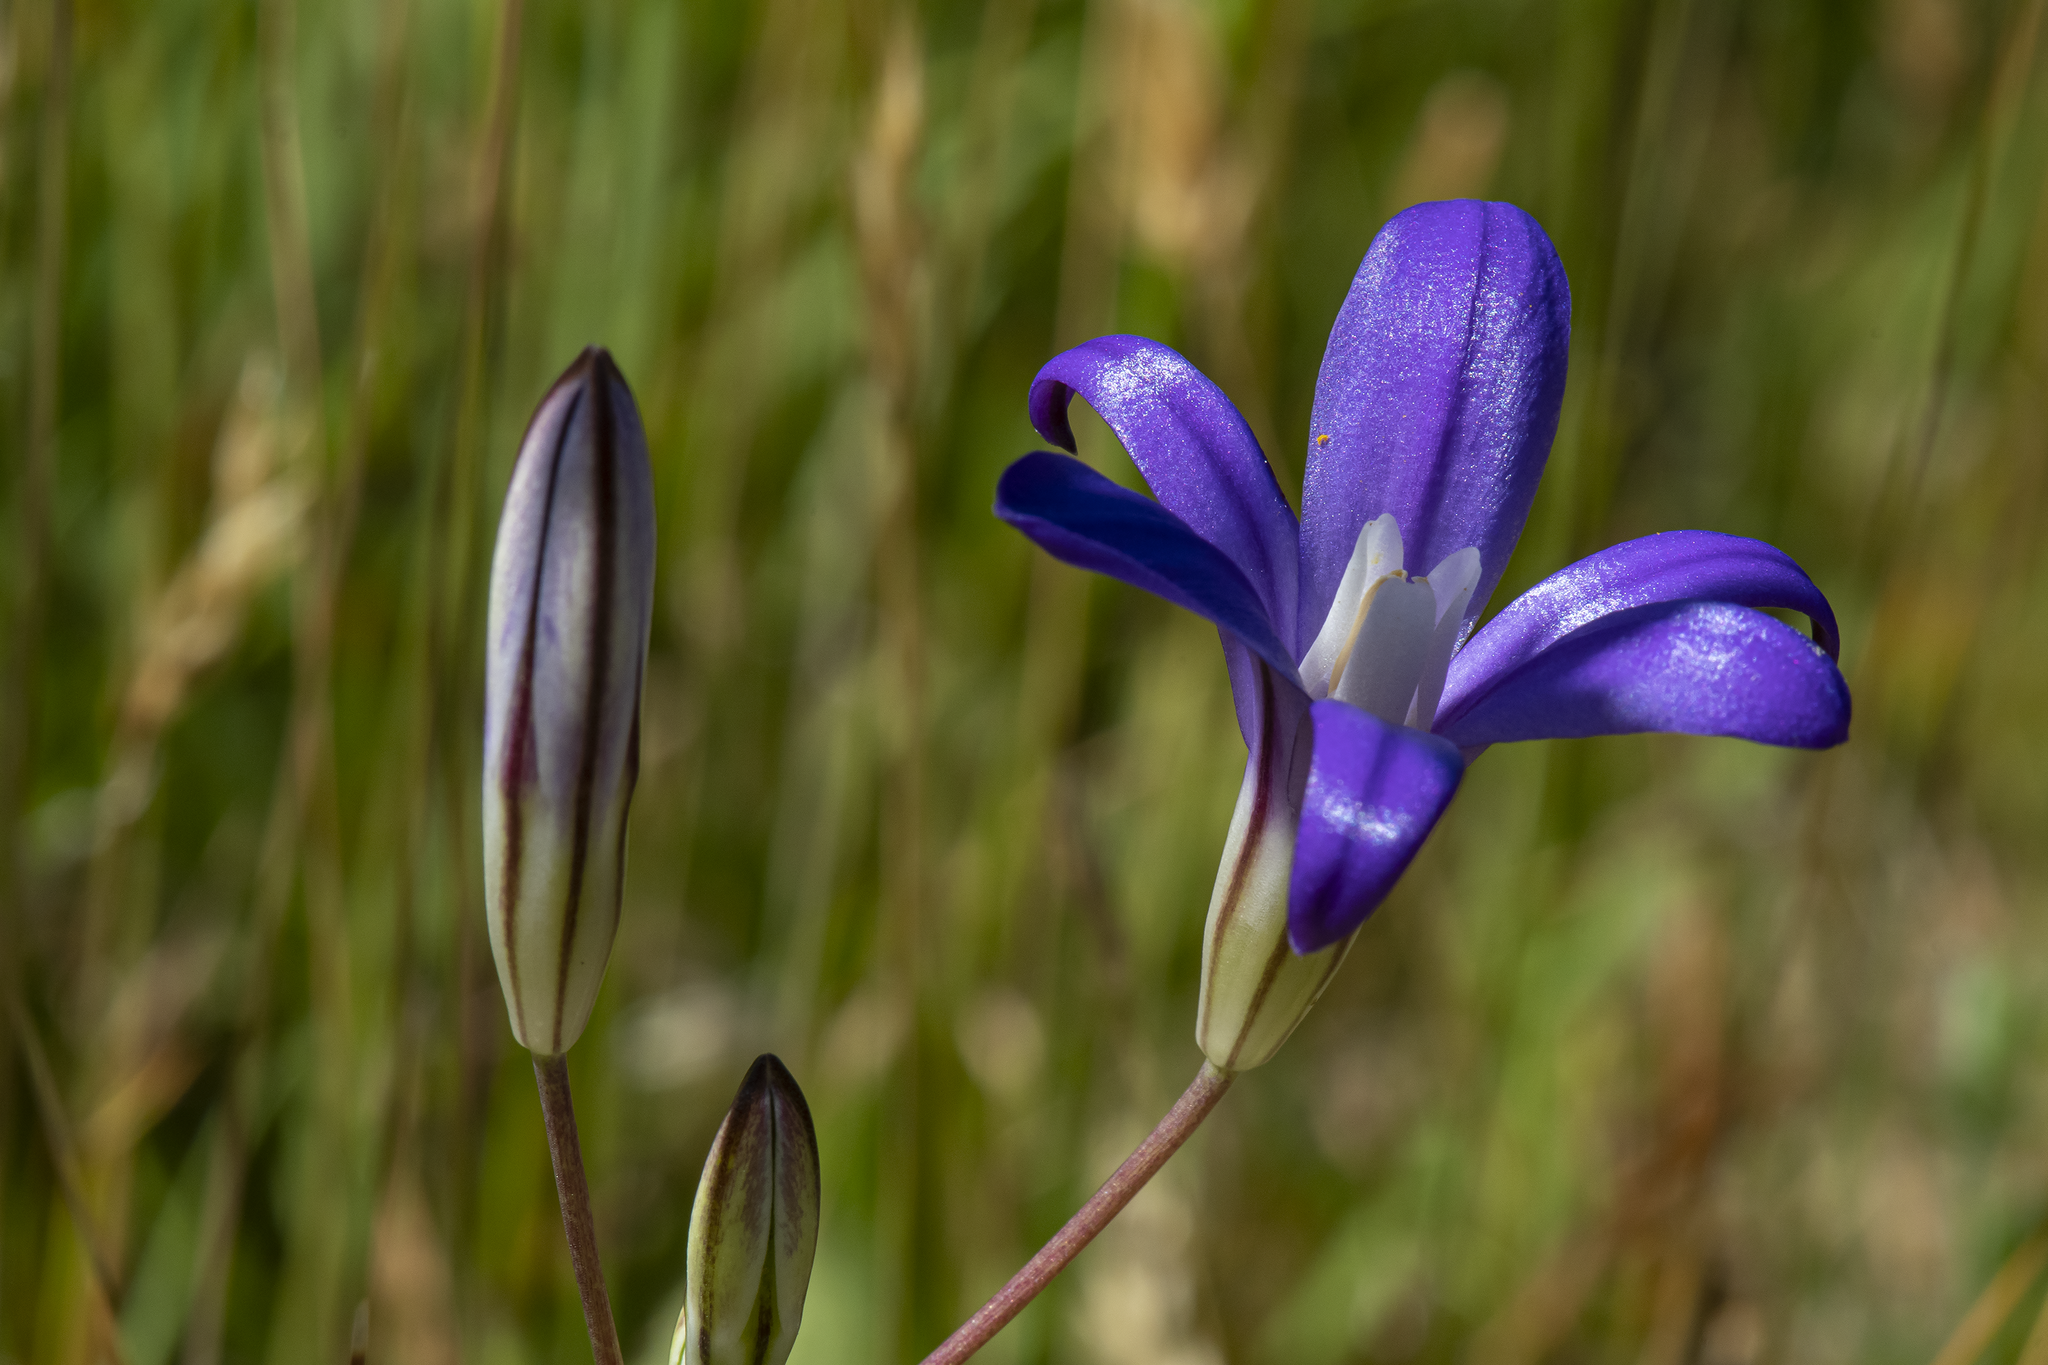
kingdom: Plantae
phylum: Tracheophyta
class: Liliopsida
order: Asparagales
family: Asparagaceae
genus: Brodiaea
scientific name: Brodiaea coronaria
